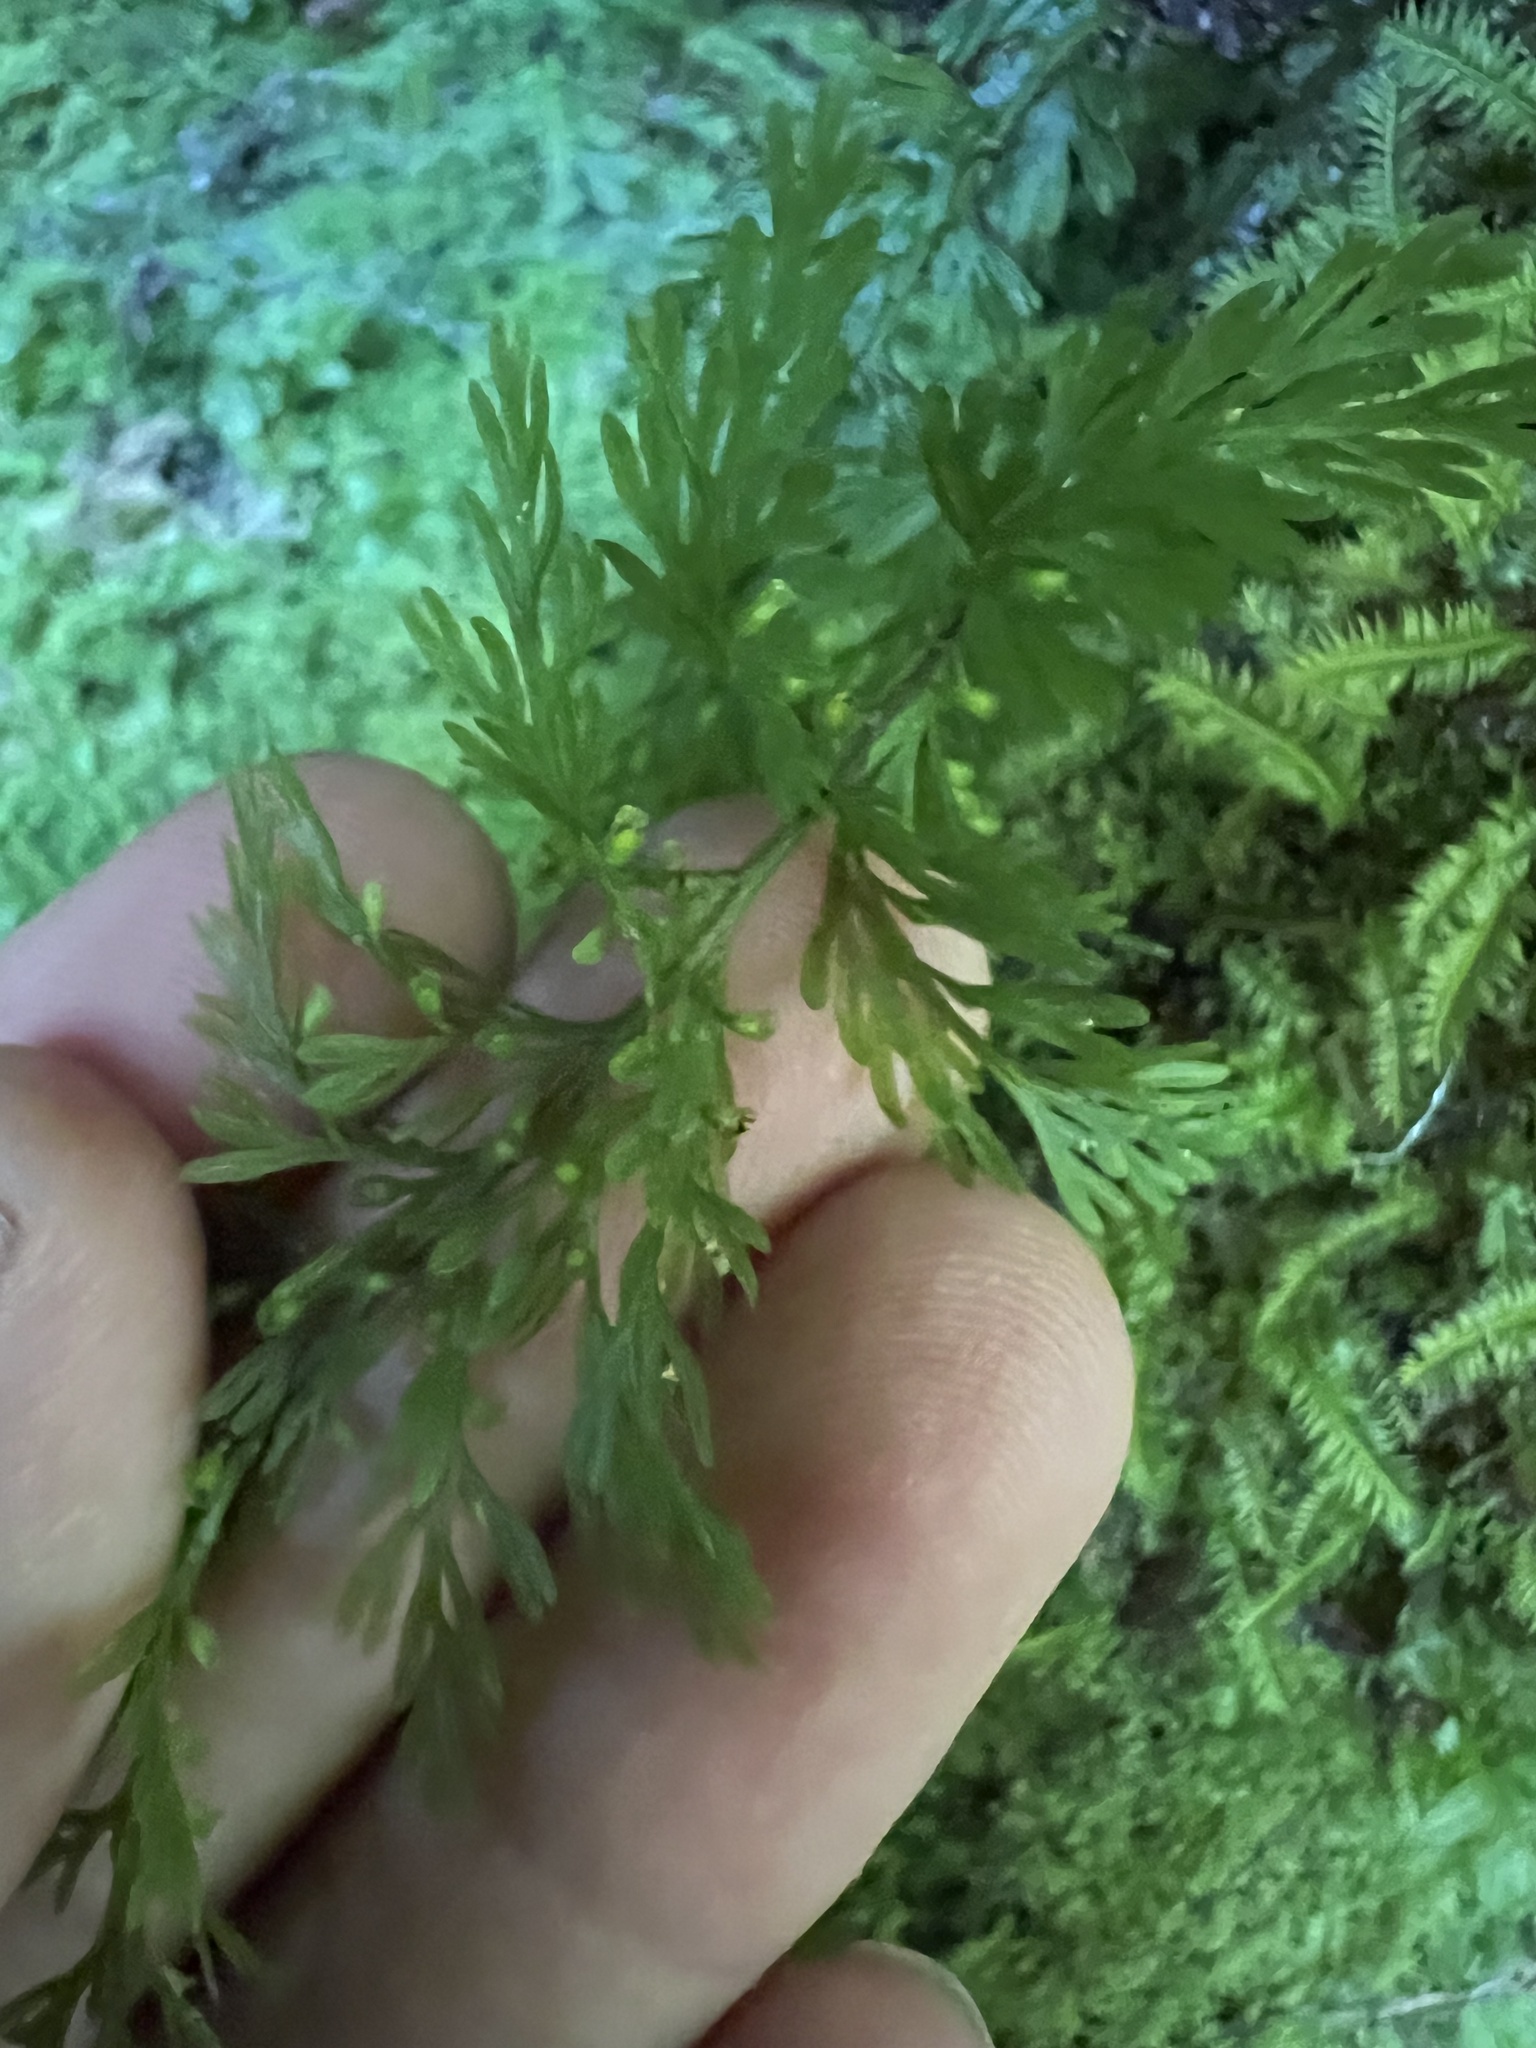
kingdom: Plantae
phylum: Tracheophyta
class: Polypodiopsida
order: Hymenophyllales
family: Hymenophyllaceae
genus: Abrodictyum
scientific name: Abrodictyum strictum
